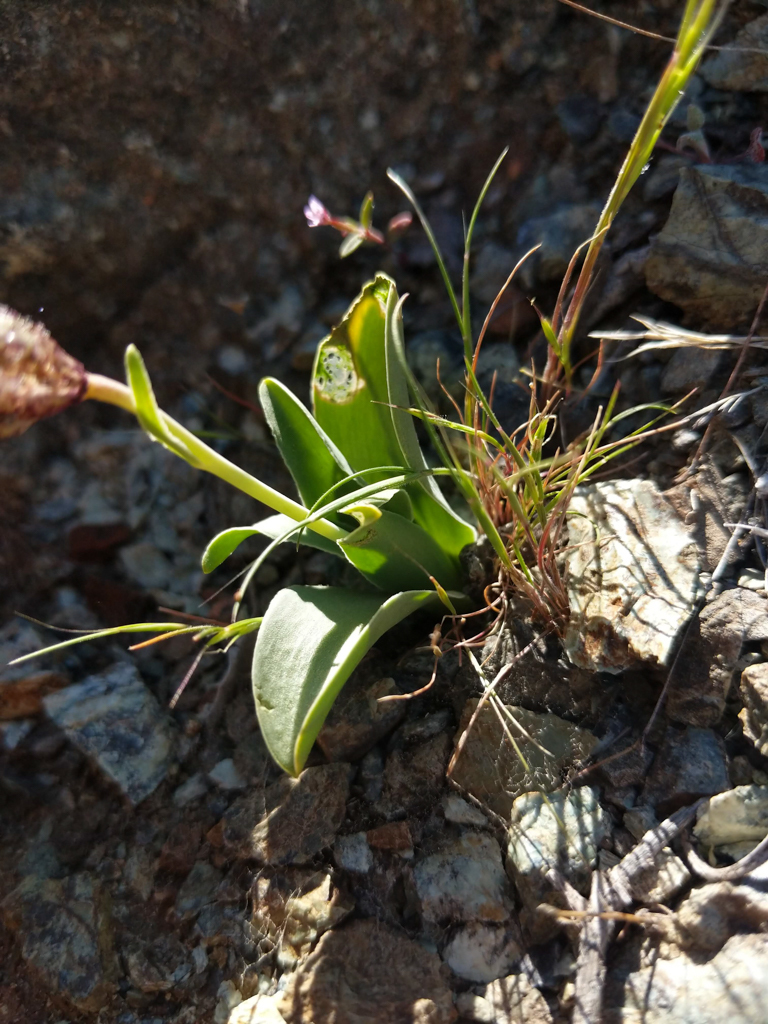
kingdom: Plantae
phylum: Tracheophyta
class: Liliopsida
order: Liliales
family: Liliaceae
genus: Fritillaria
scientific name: Fritillaria purdyi
